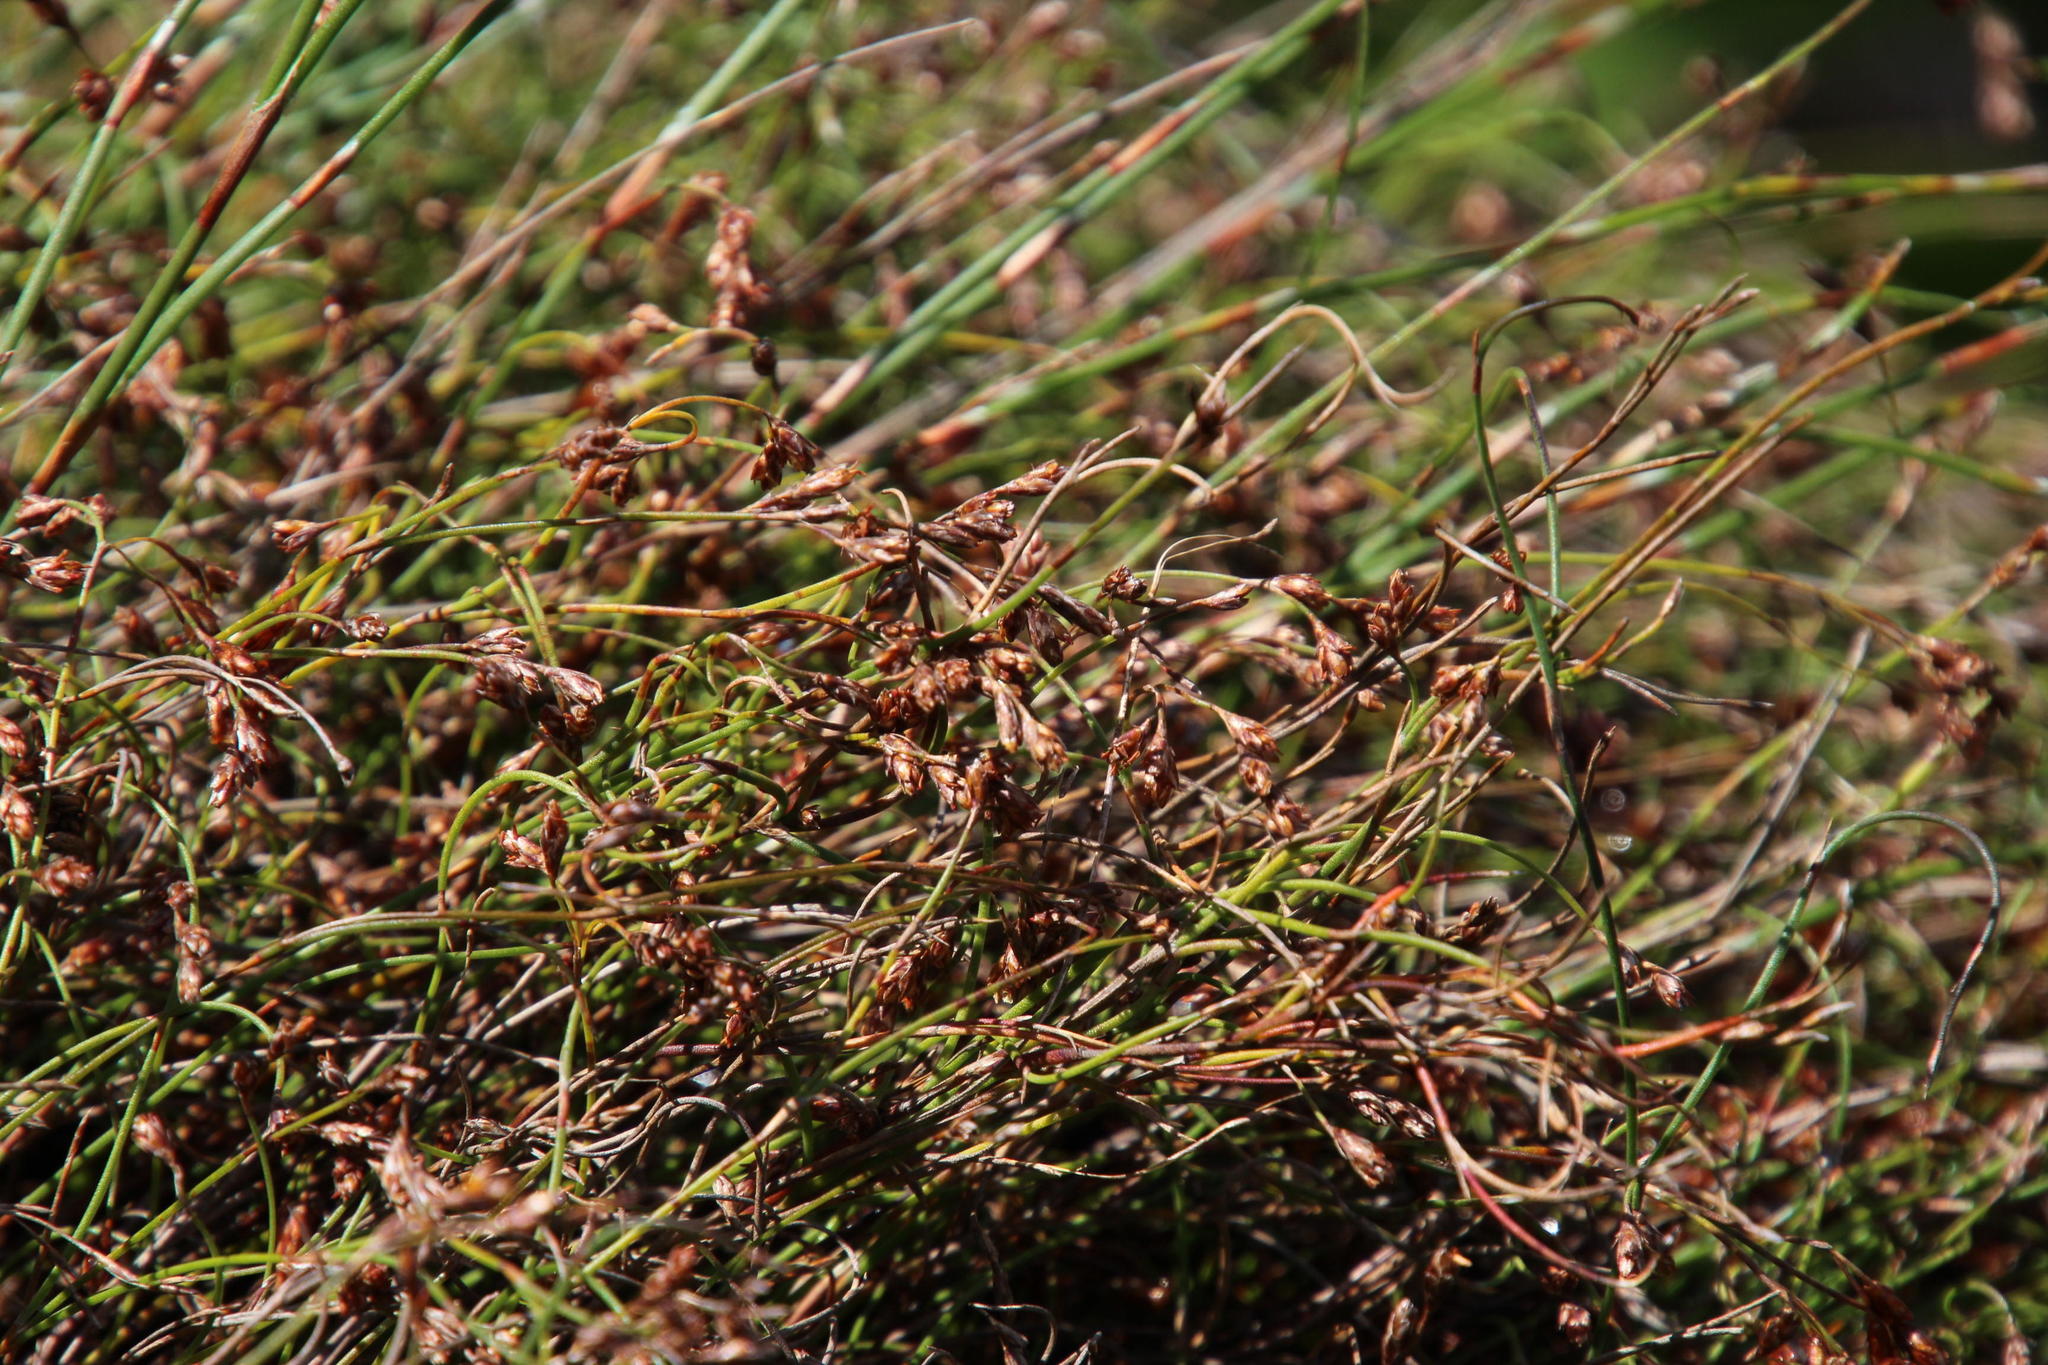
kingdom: Plantae
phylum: Tracheophyta
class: Liliopsida
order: Poales
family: Restionaceae
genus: Restio
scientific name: Restio perplexus
